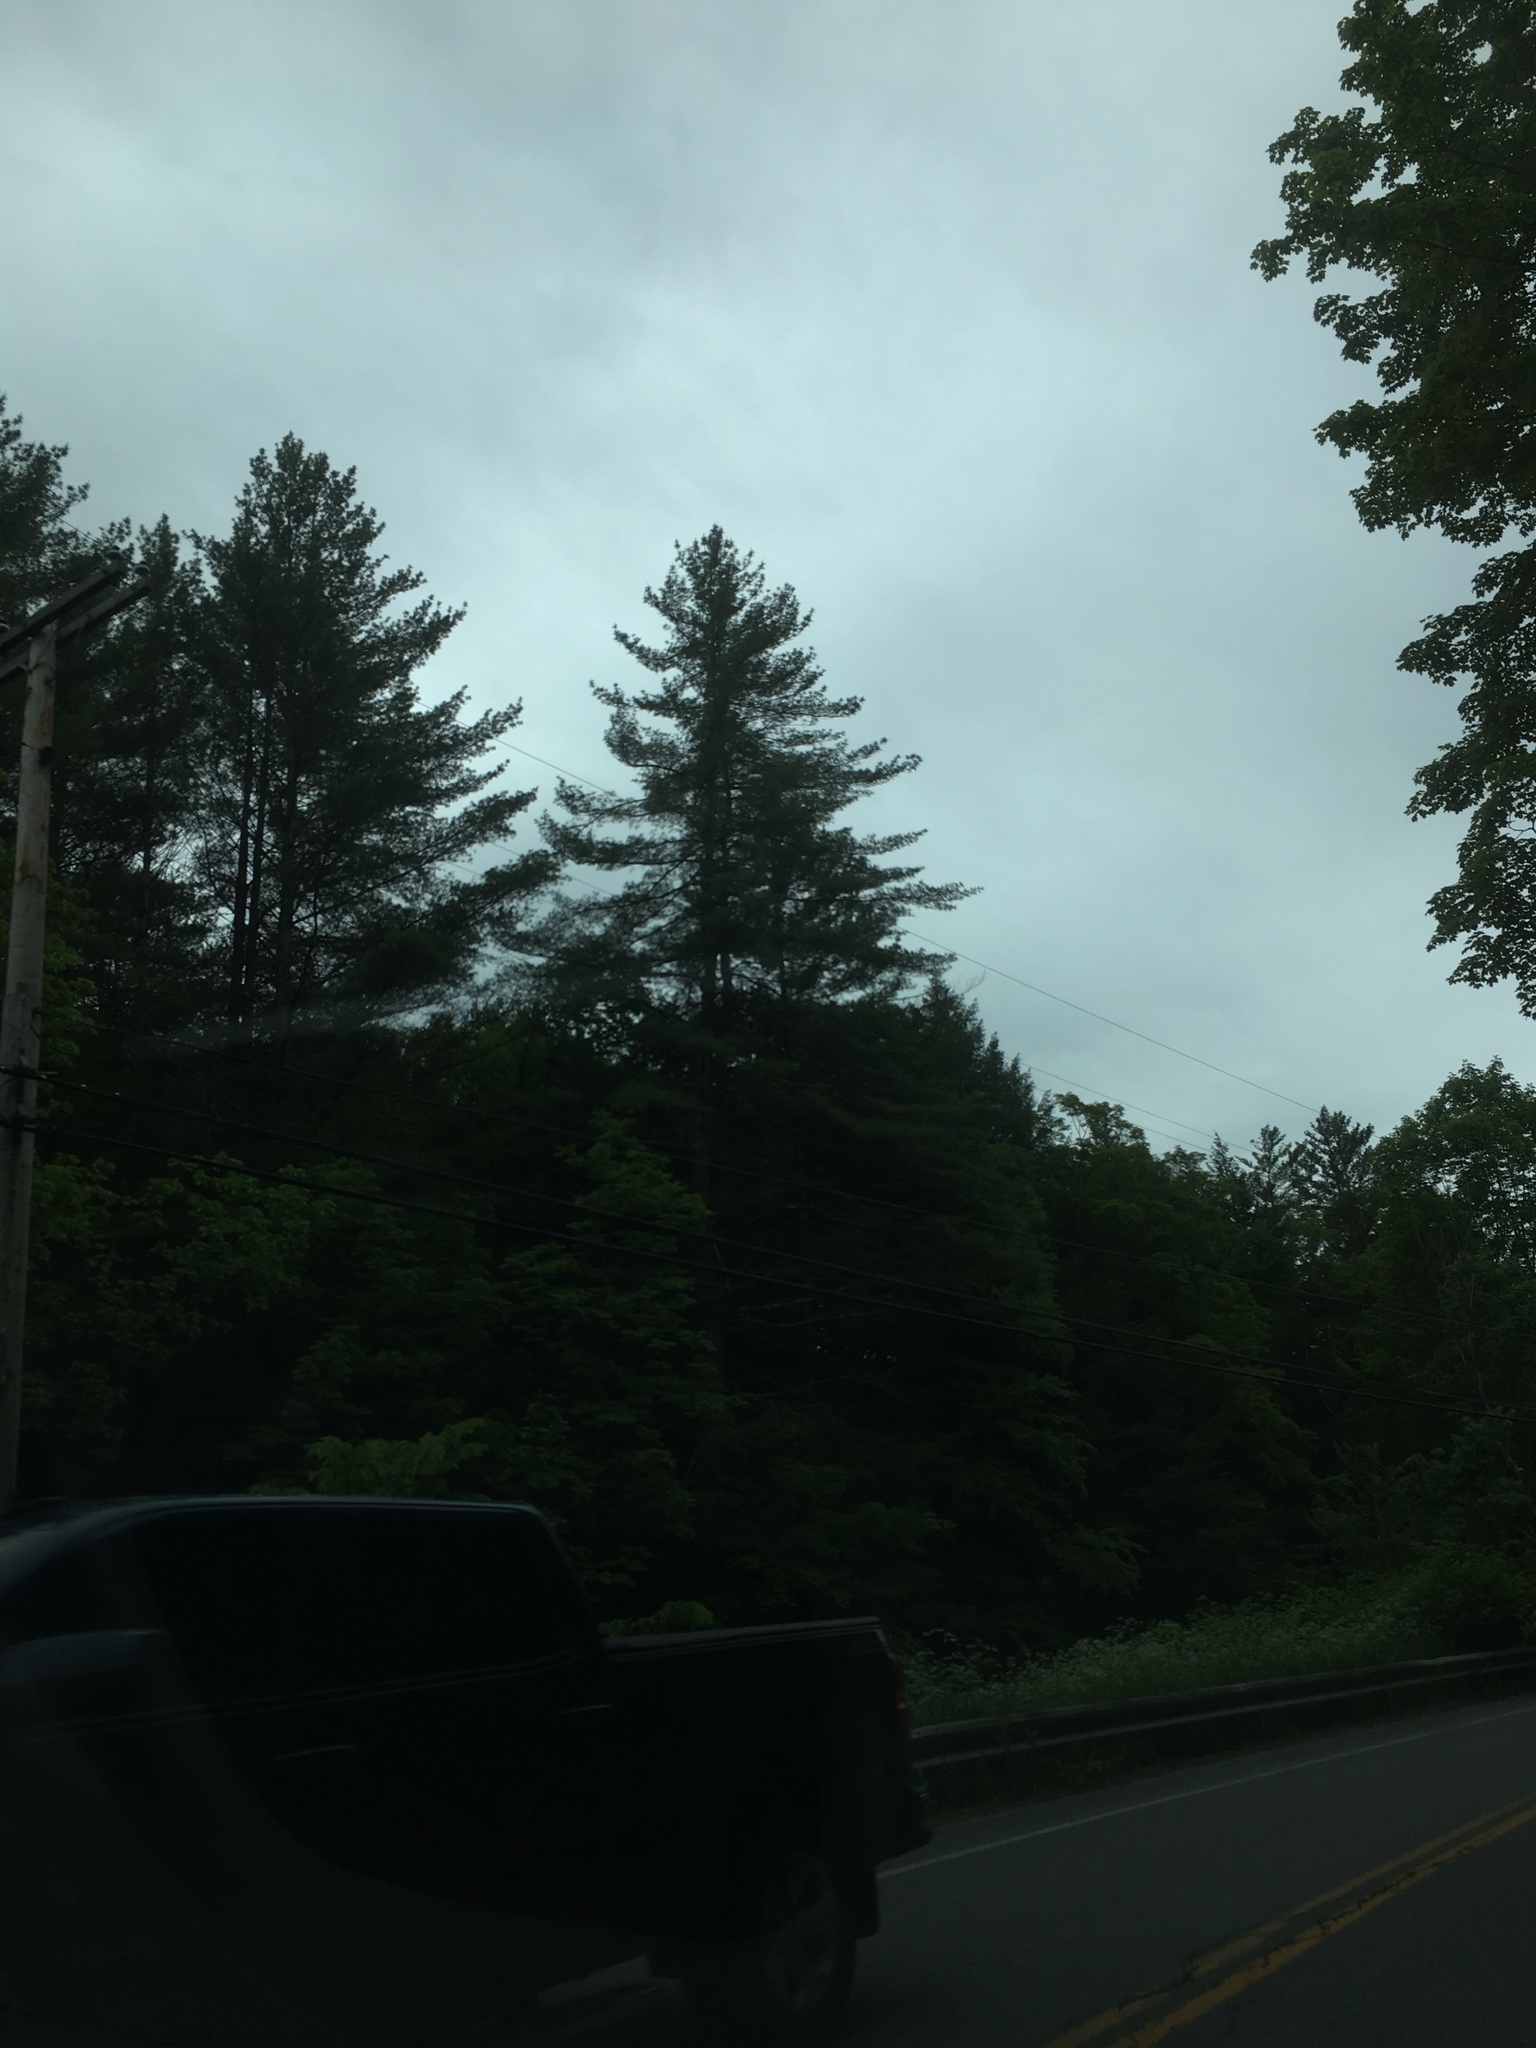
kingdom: Plantae
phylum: Tracheophyta
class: Pinopsida
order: Pinales
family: Pinaceae
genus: Pinus
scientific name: Pinus strobus
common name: Weymouth pine
